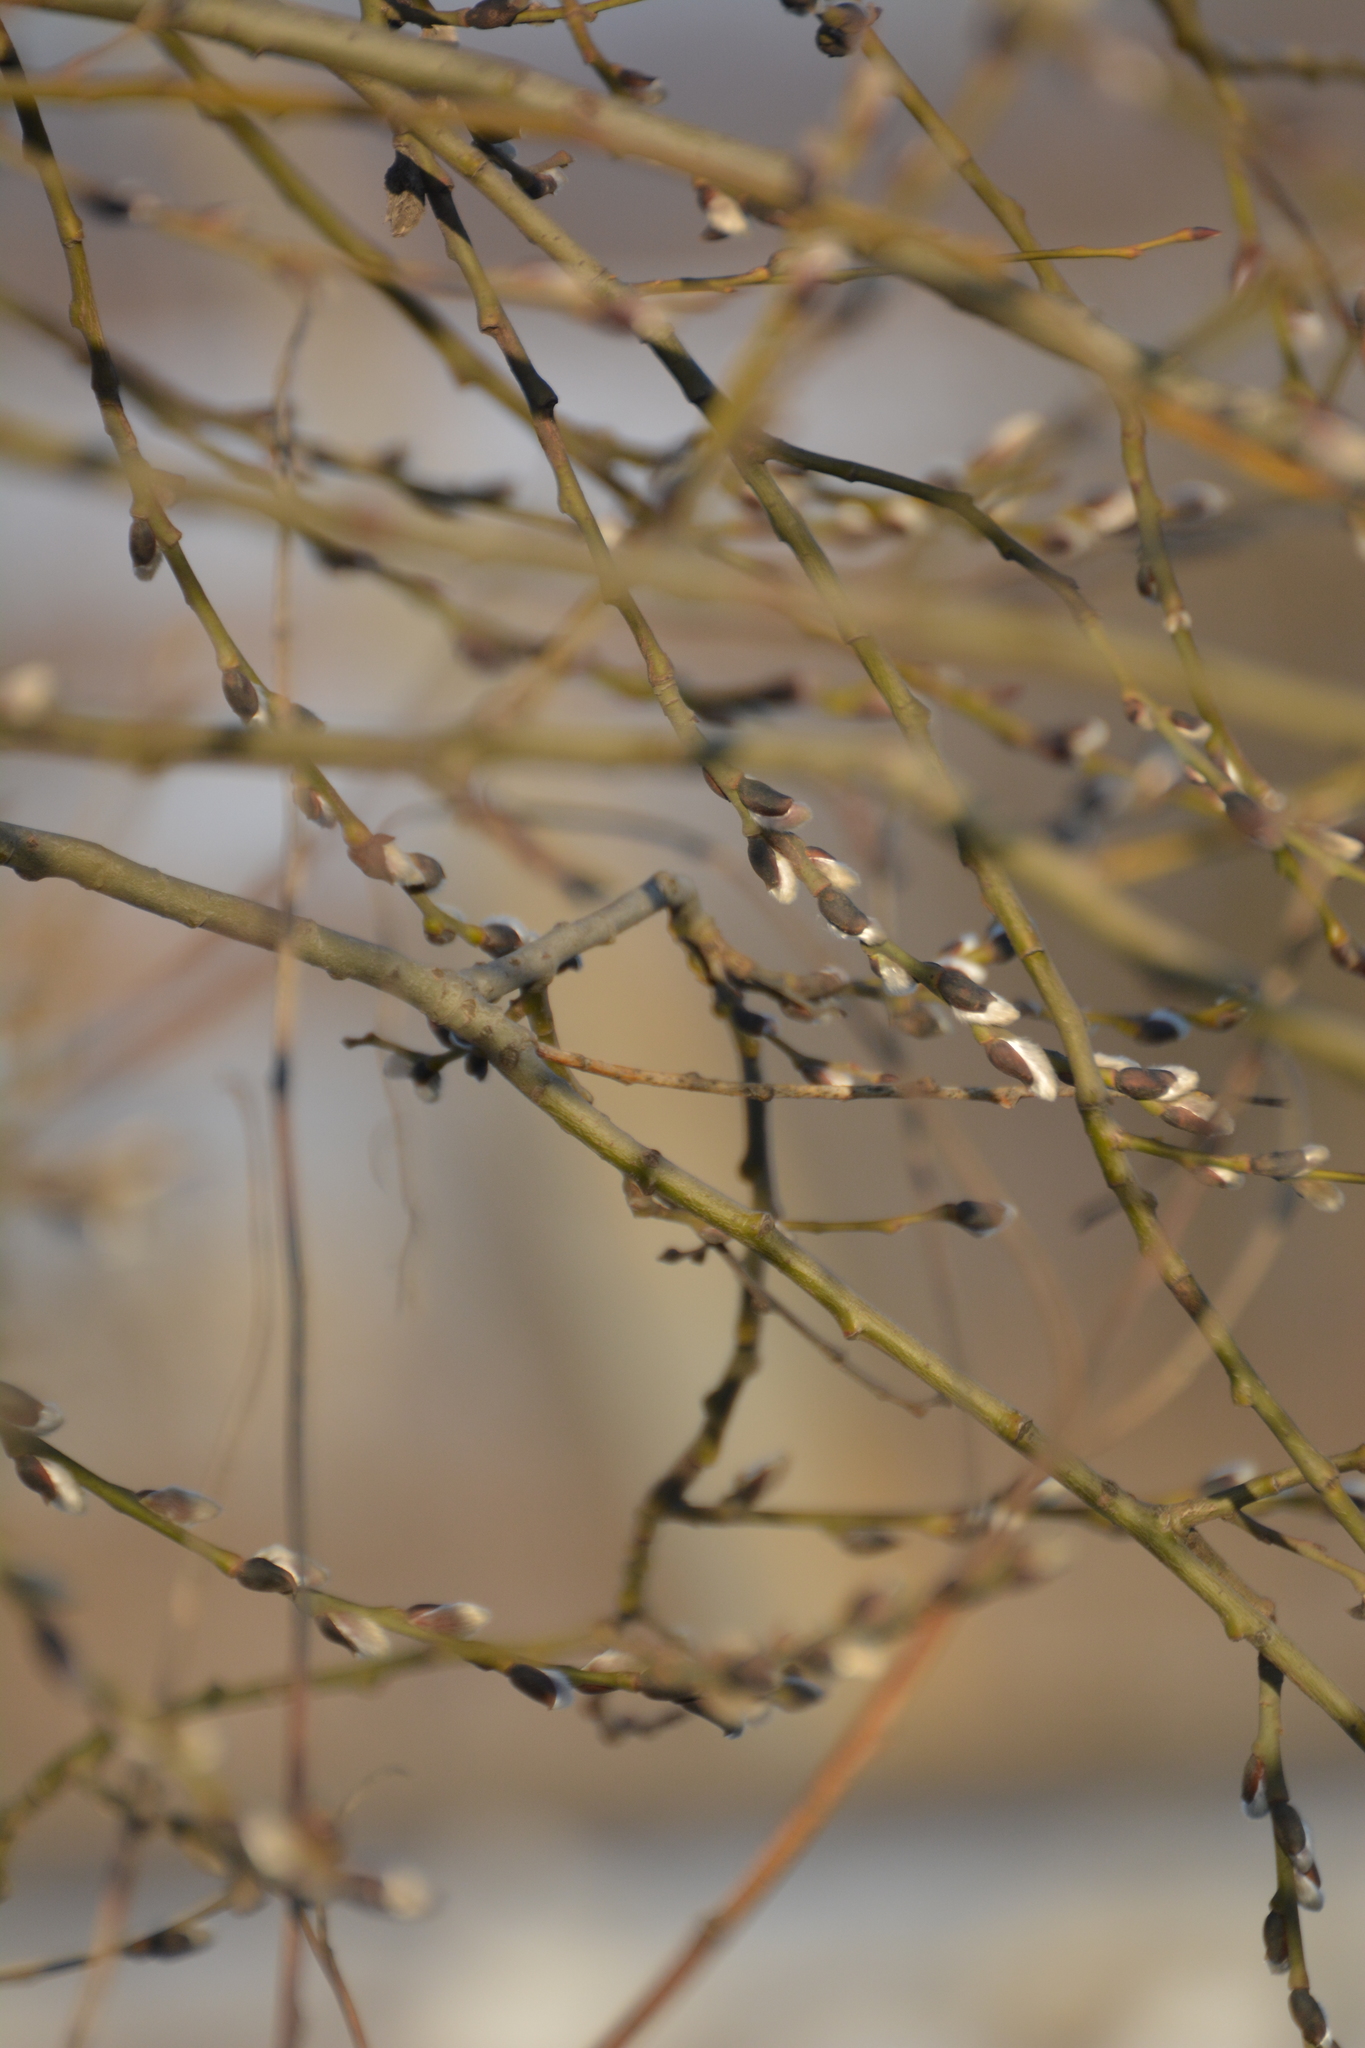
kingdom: Plantae
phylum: Tracheophyta
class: Magnoliopsida
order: Malpighiales
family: Salicaceae
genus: Salix
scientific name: Salix caprea
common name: Goat willow
